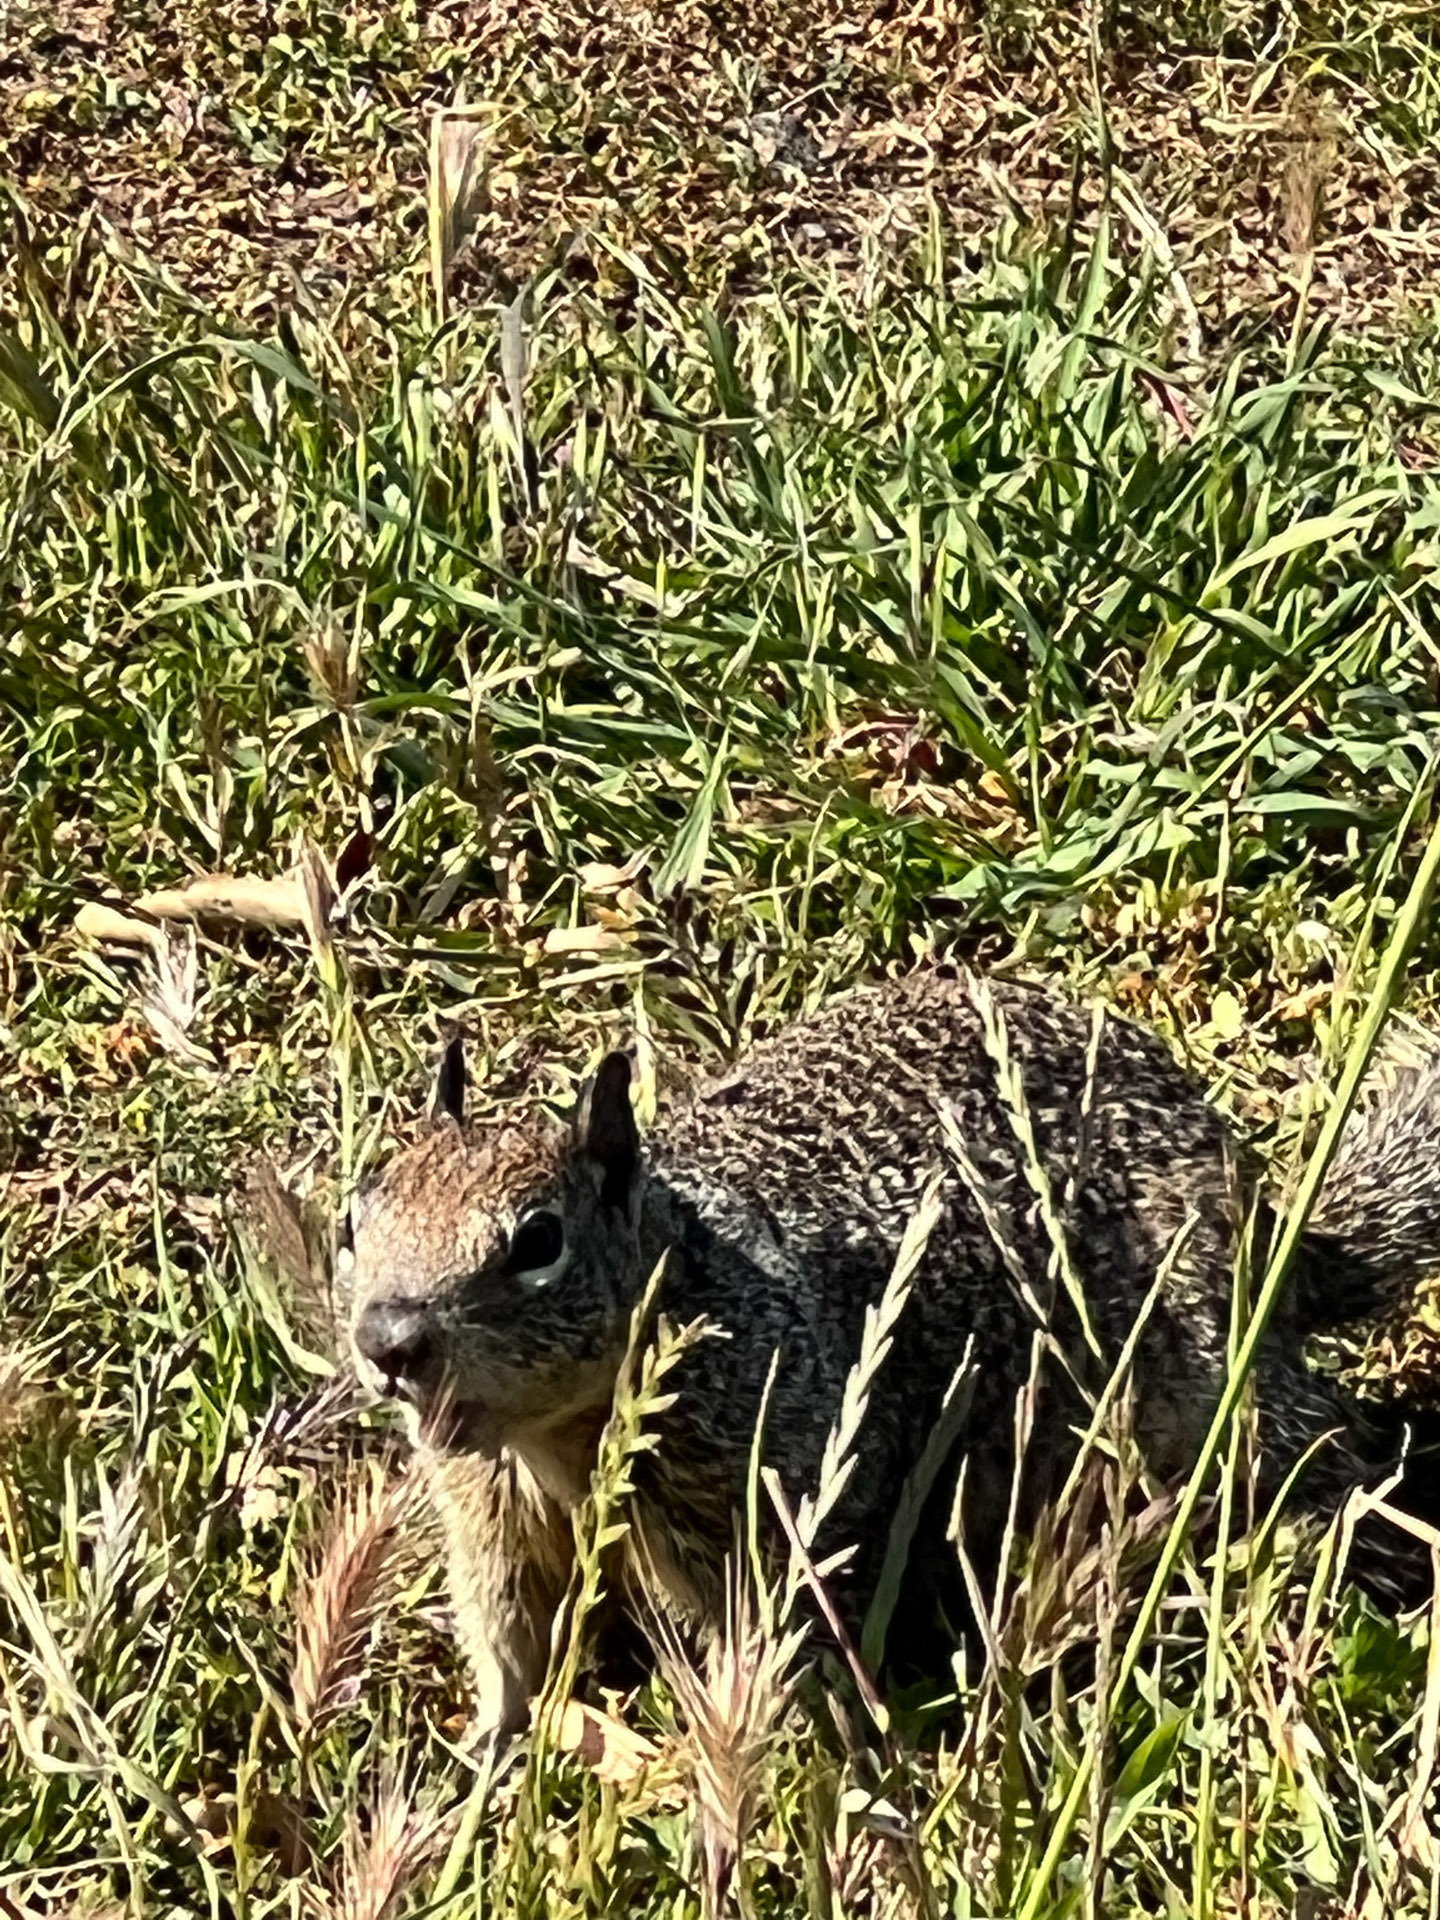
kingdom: Animalia
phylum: Chordata
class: Mammalia
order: Rodentia
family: Sciuridae
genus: Otospermophilus
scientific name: Otospermophilus beecheyi
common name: California ground squirrel
